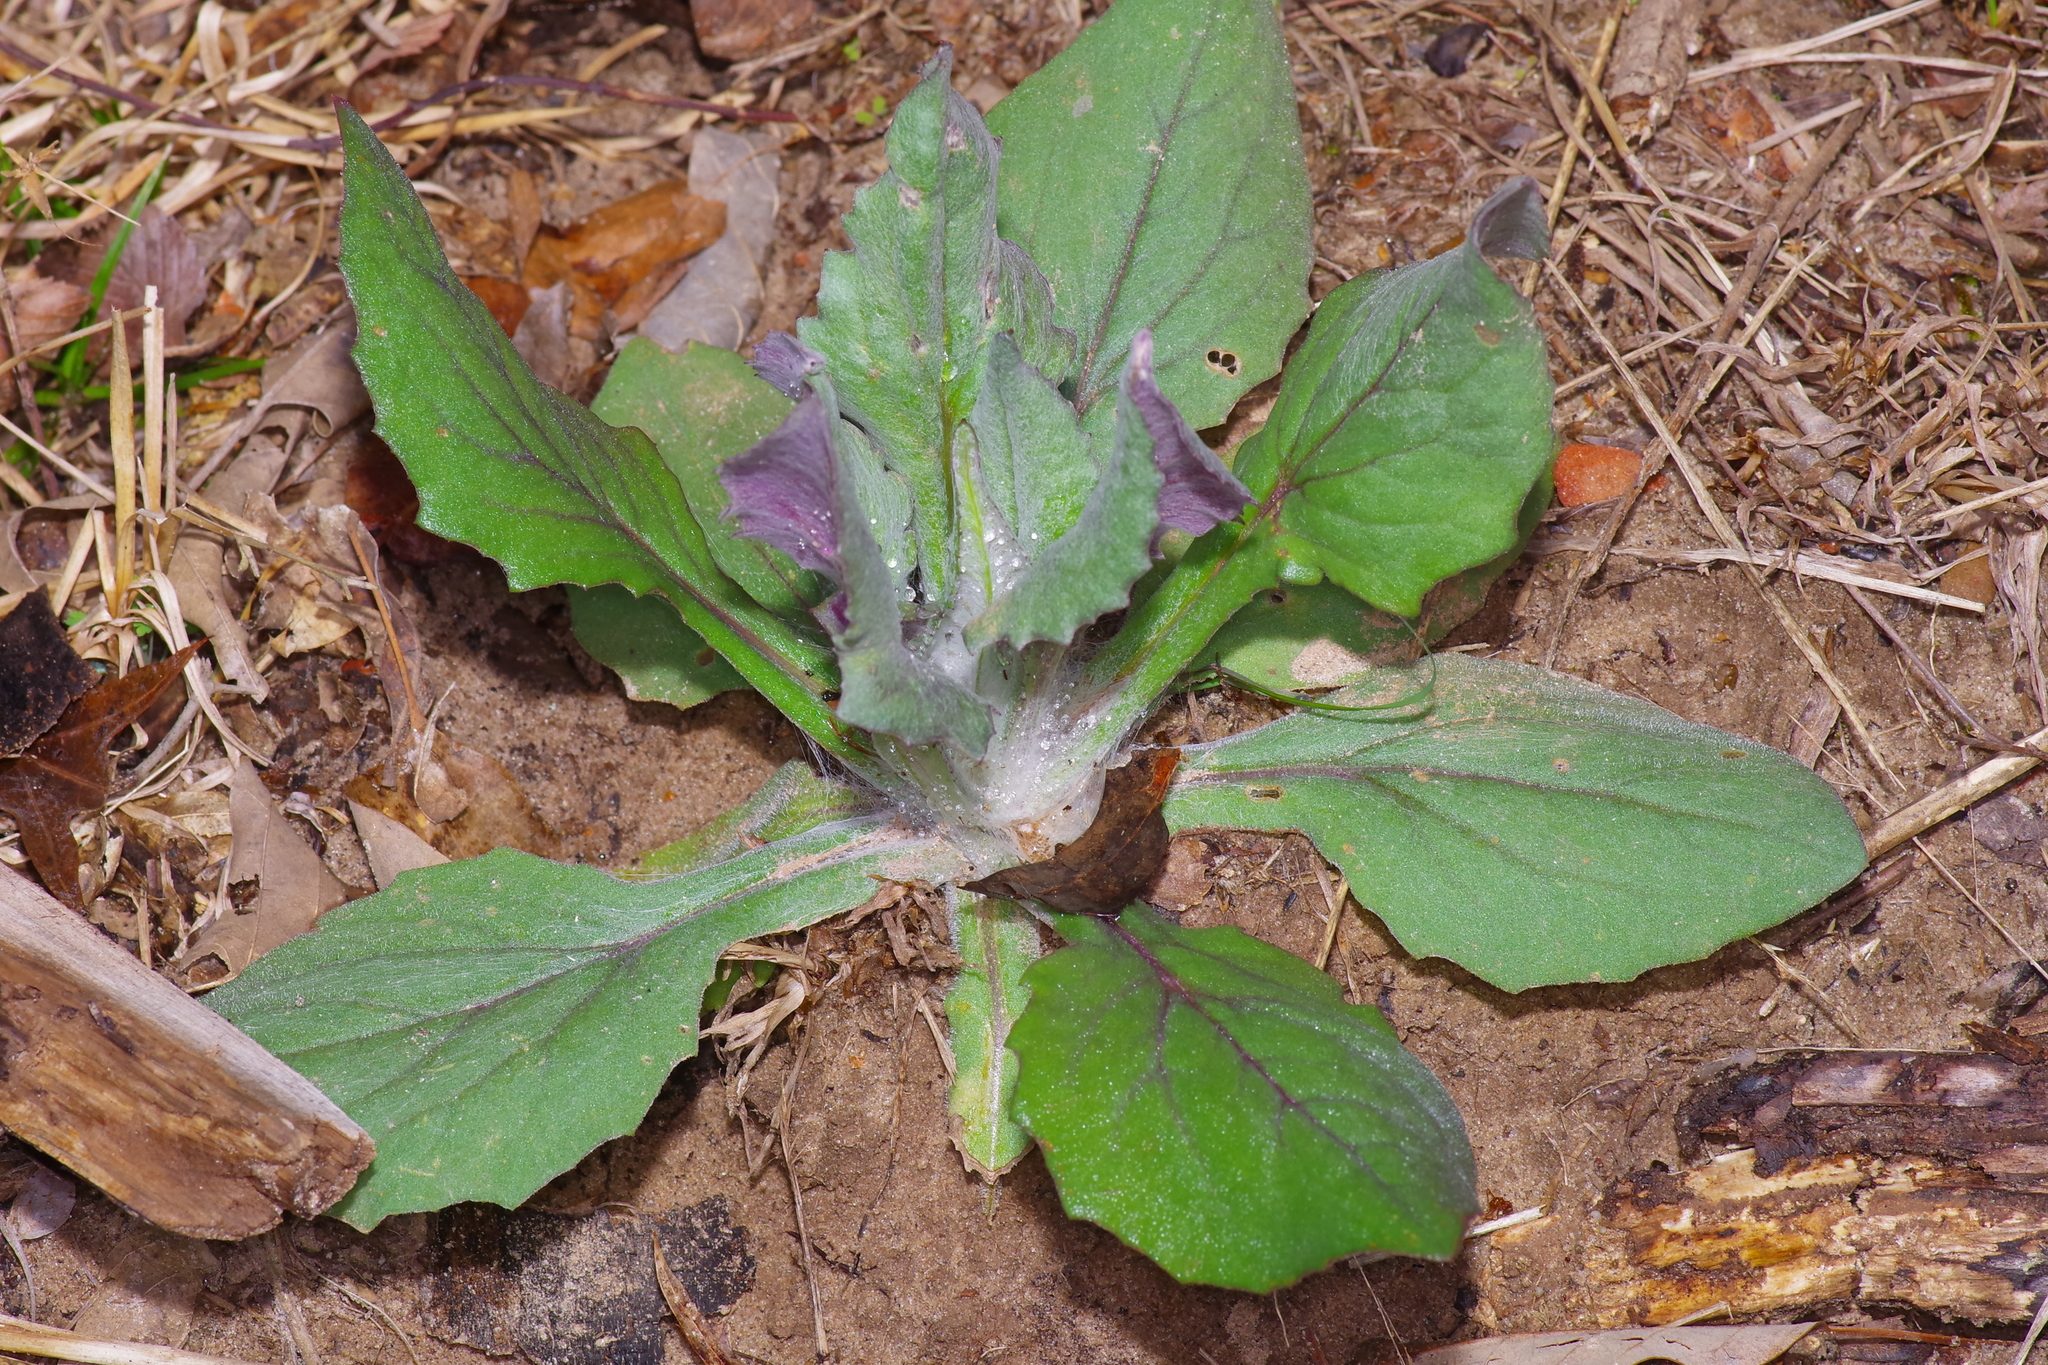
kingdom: Plantae
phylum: Tracheophyta
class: Magnoliopsida
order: Asterales
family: Asteraceae
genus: Senecio
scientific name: Senecio ampullaceus
